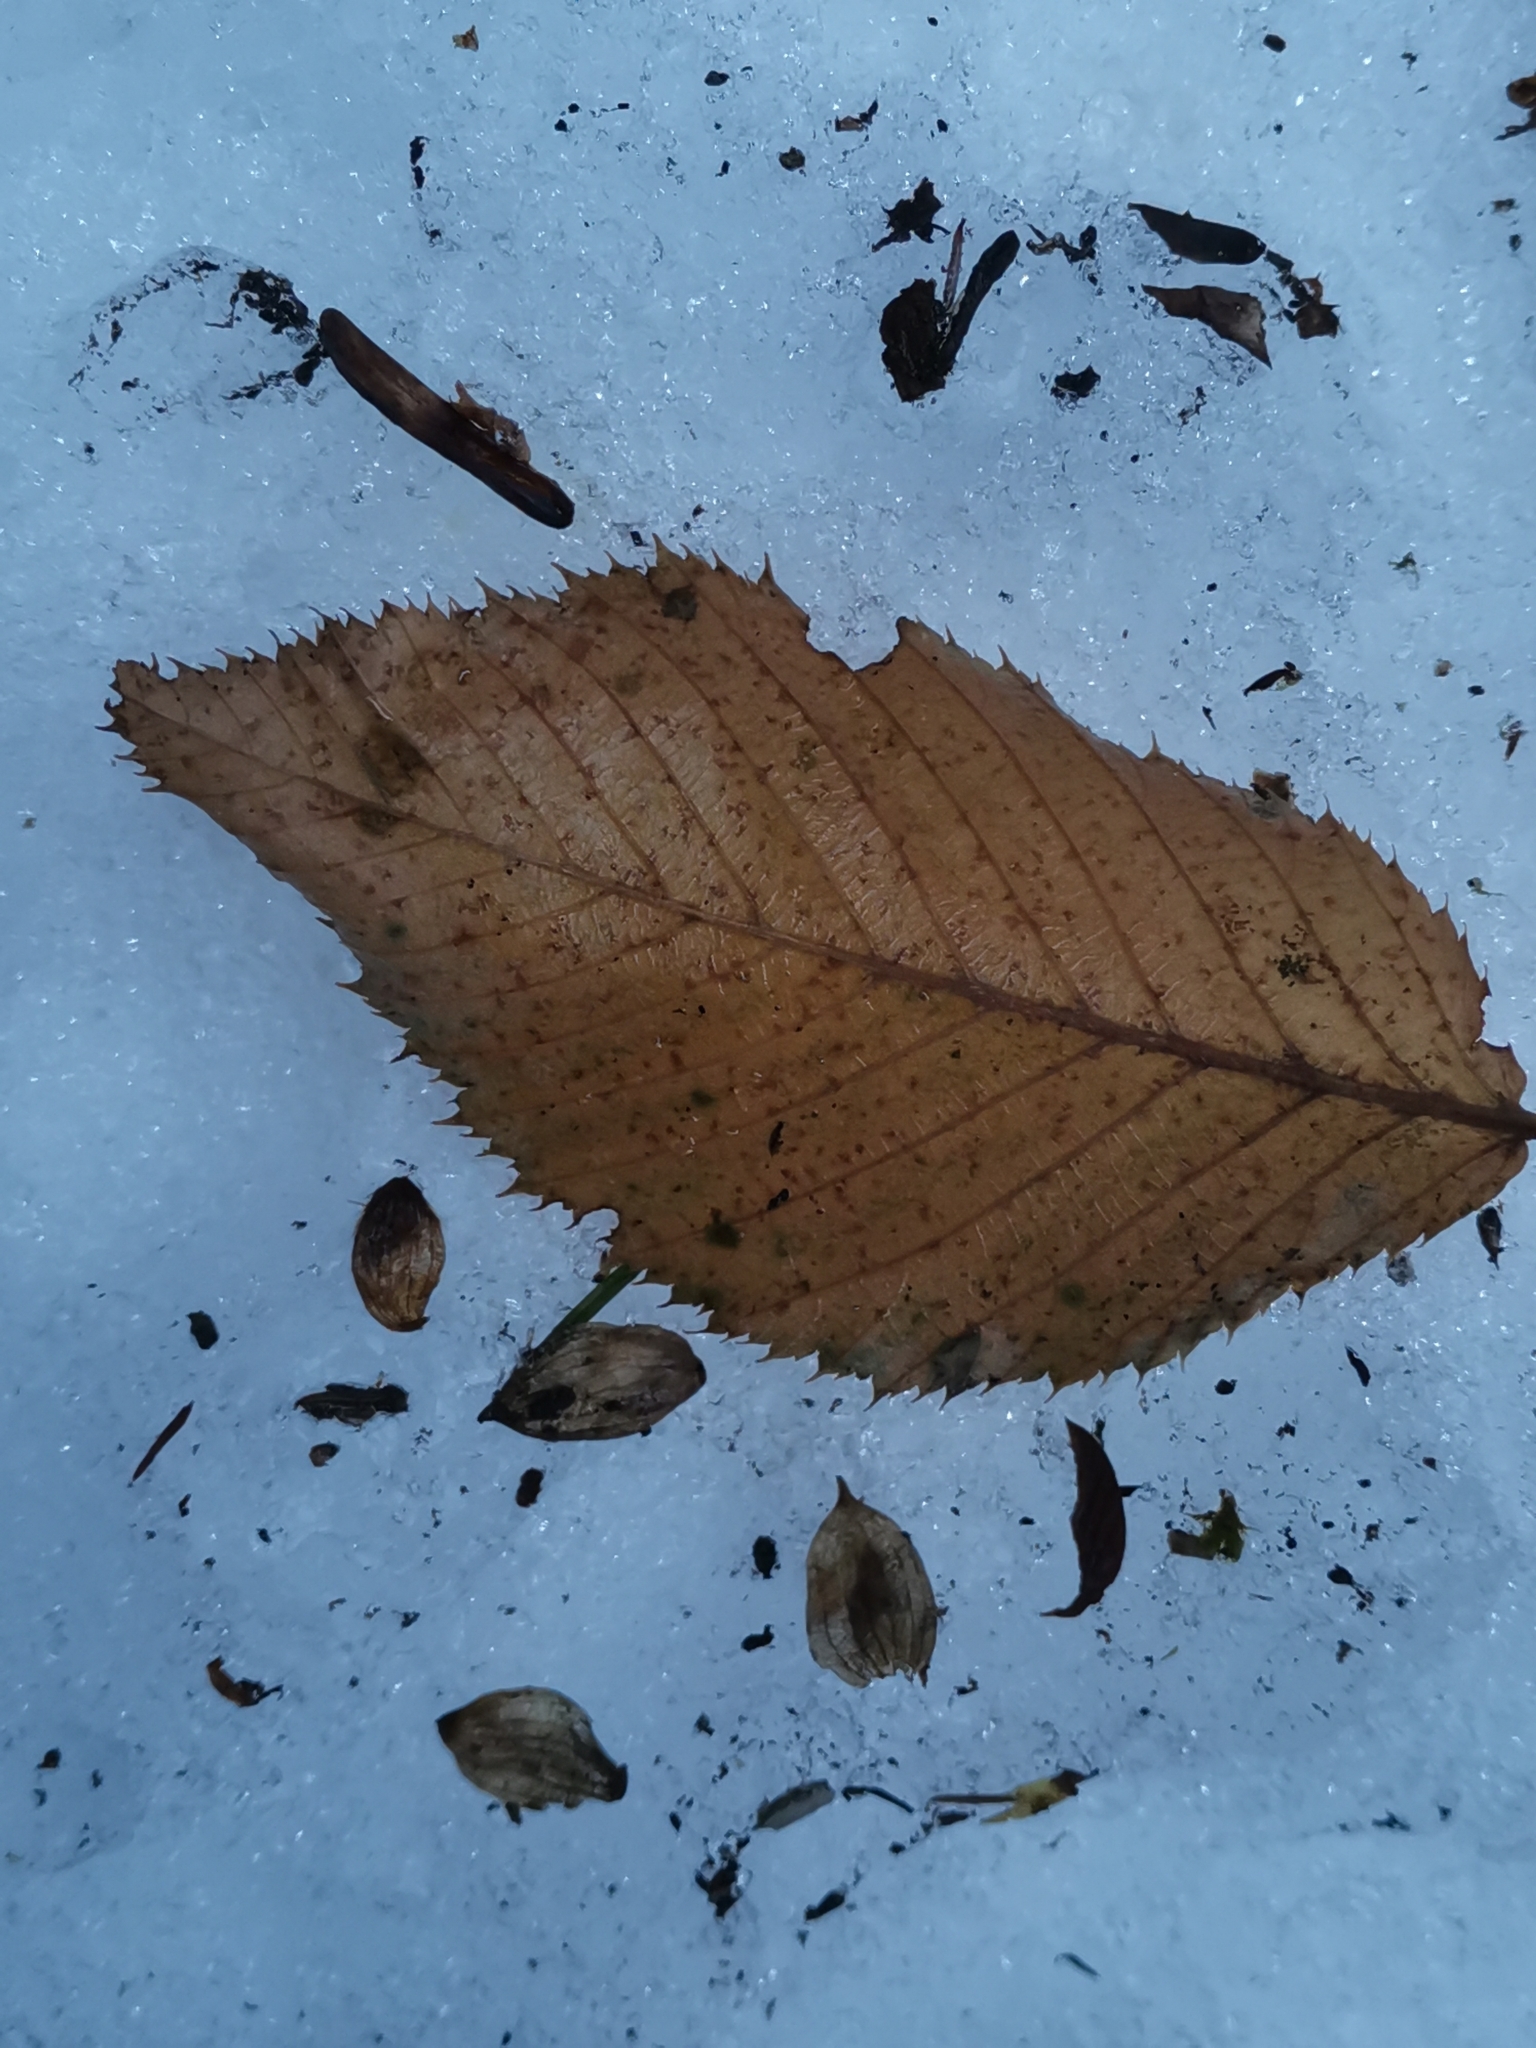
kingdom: Plantae
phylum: Tracheophyta
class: Magnoliopsida
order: Fagales
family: Betulaceae
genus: Ostrya
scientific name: Ostrya carpinifolia
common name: European hop-hornbeam
